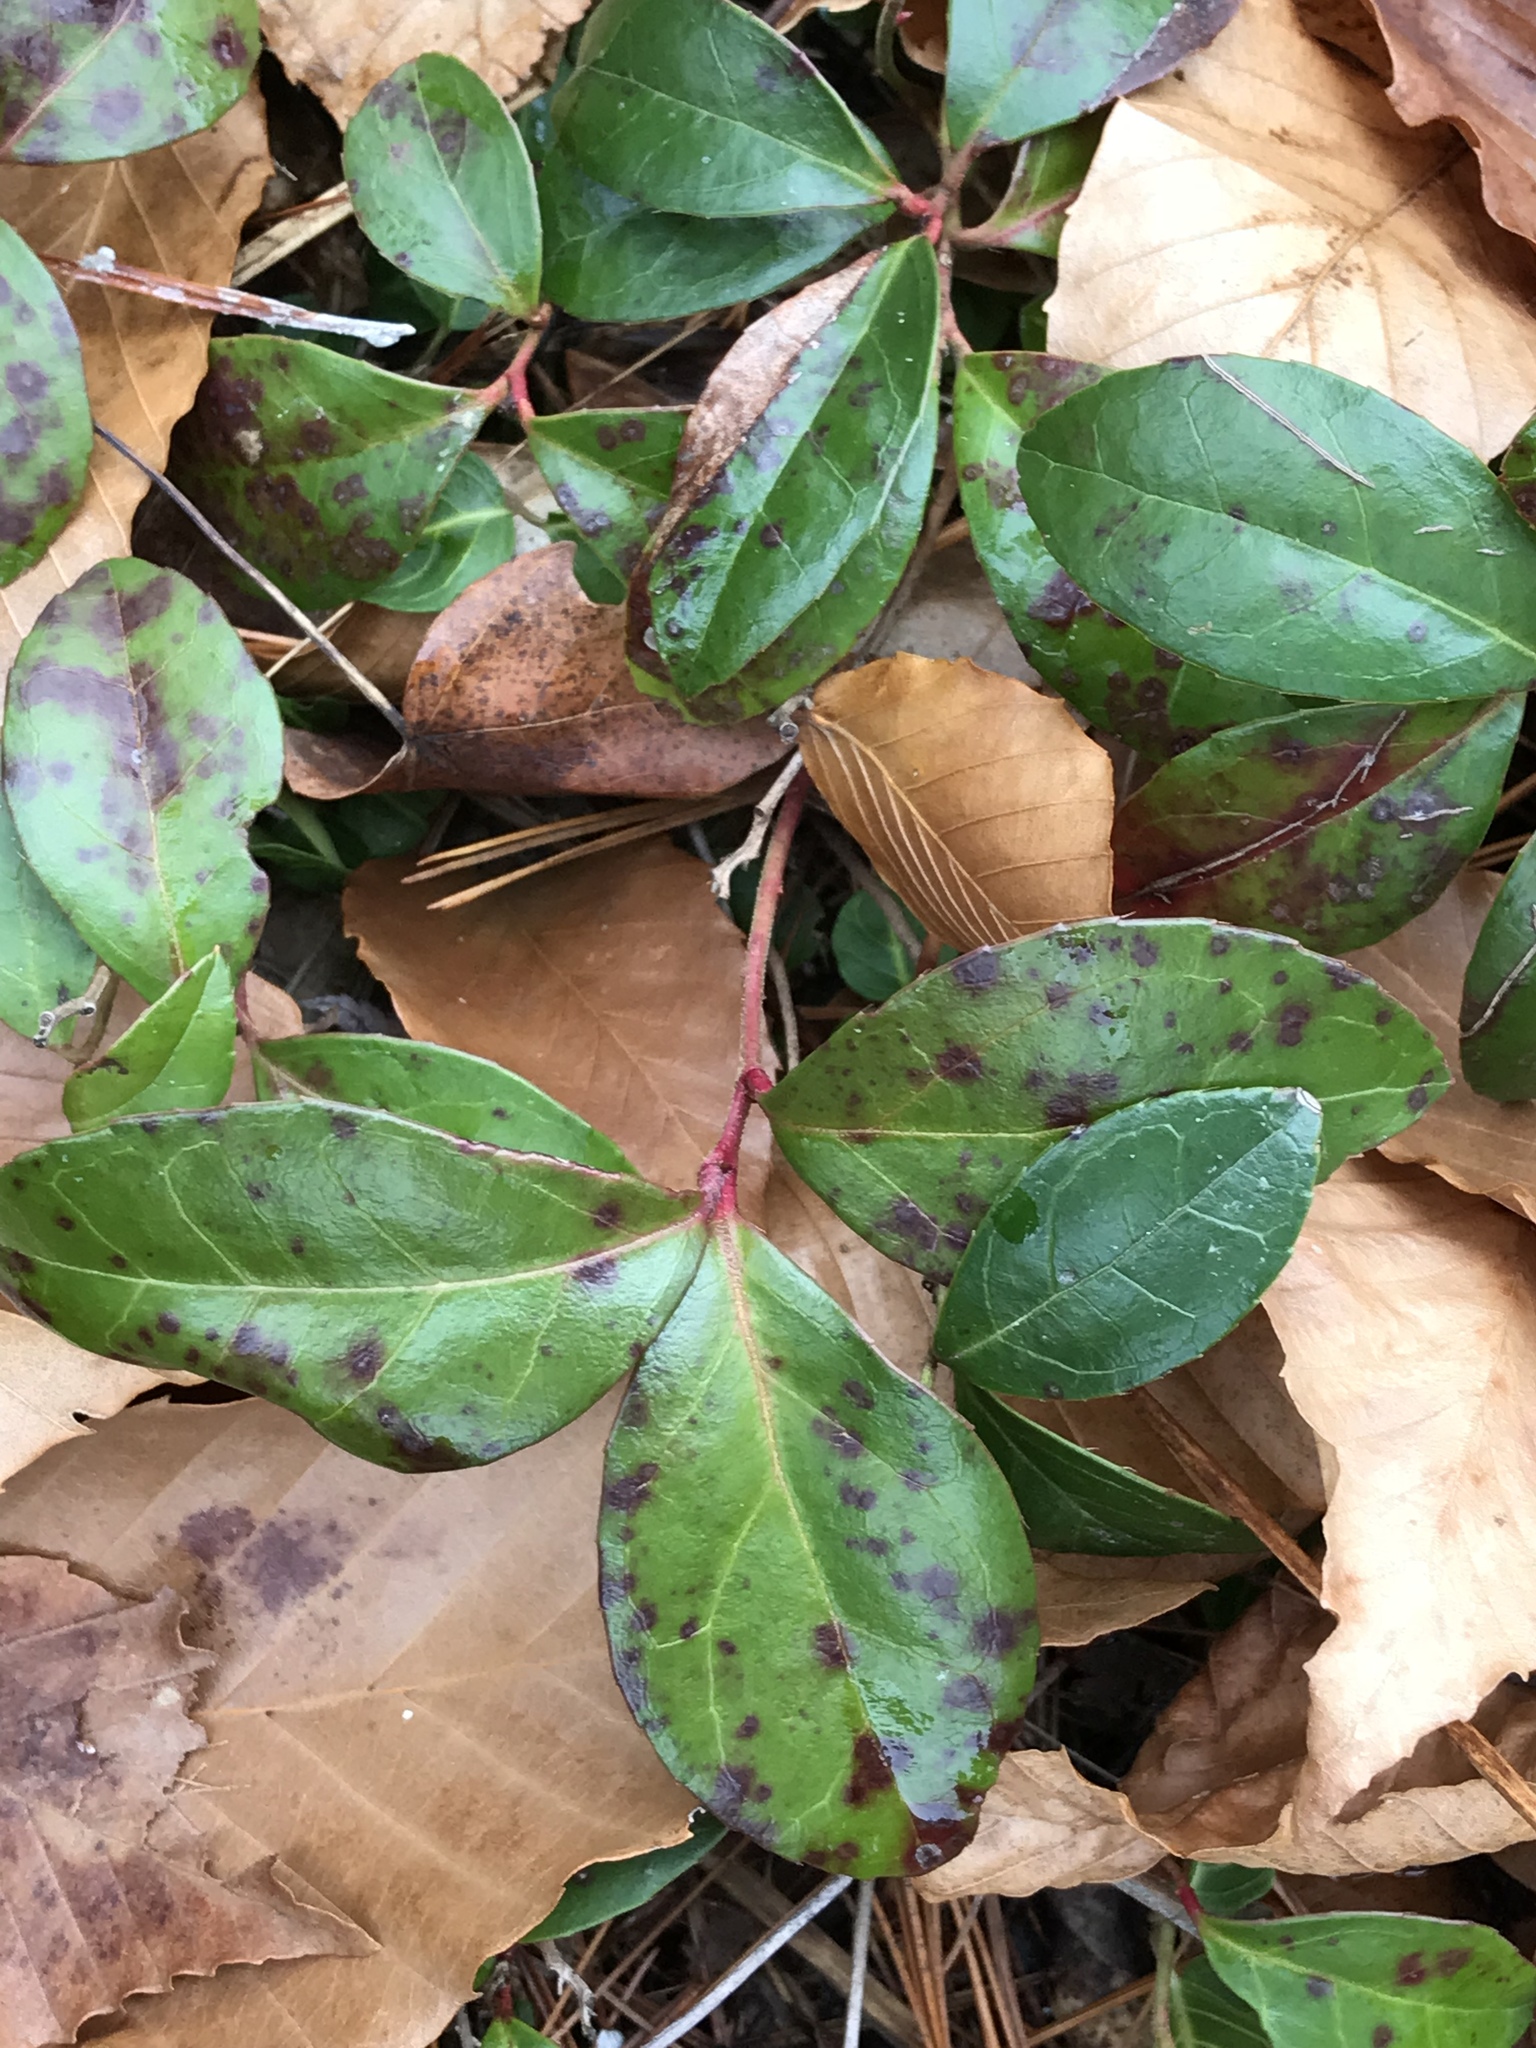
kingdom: Plantae
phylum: Tracheophyta
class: Magnoliopsida
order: Ericales
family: Ericaceae
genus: Gaultheria
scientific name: Gaultheria procumbens
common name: Checkerberry
